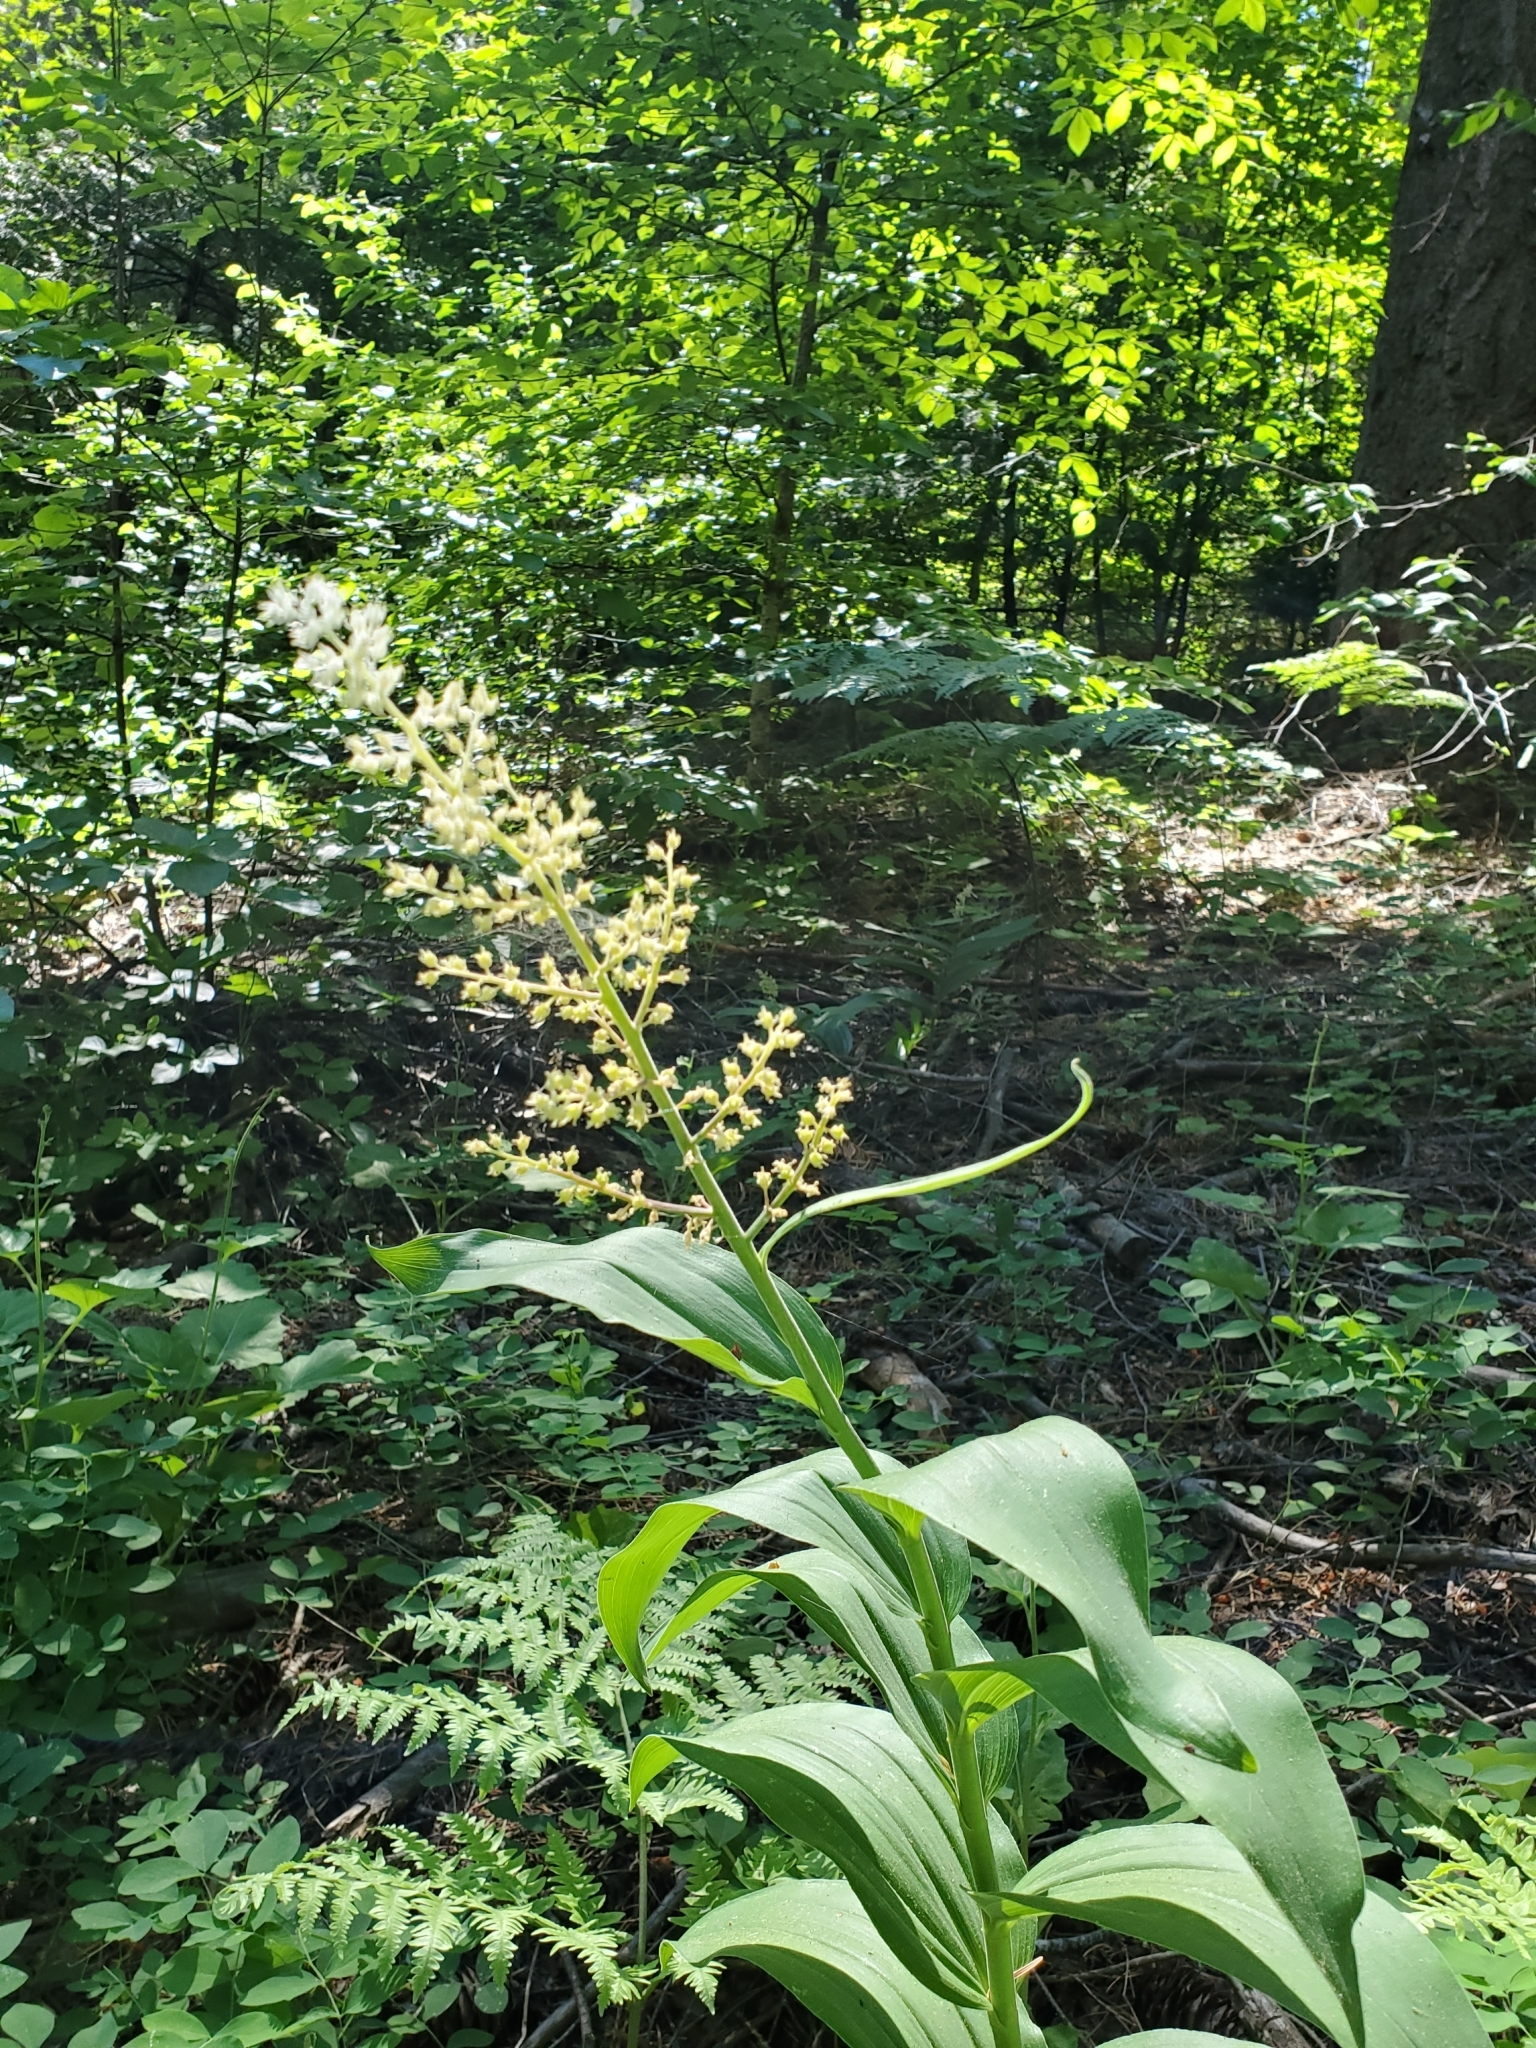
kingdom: Plantae
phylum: Tracheophyta
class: Liliopsida
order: Asparagales
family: Asparagaceae
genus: Maianthemum
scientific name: Maianthemum racemosum
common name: False spikenard
